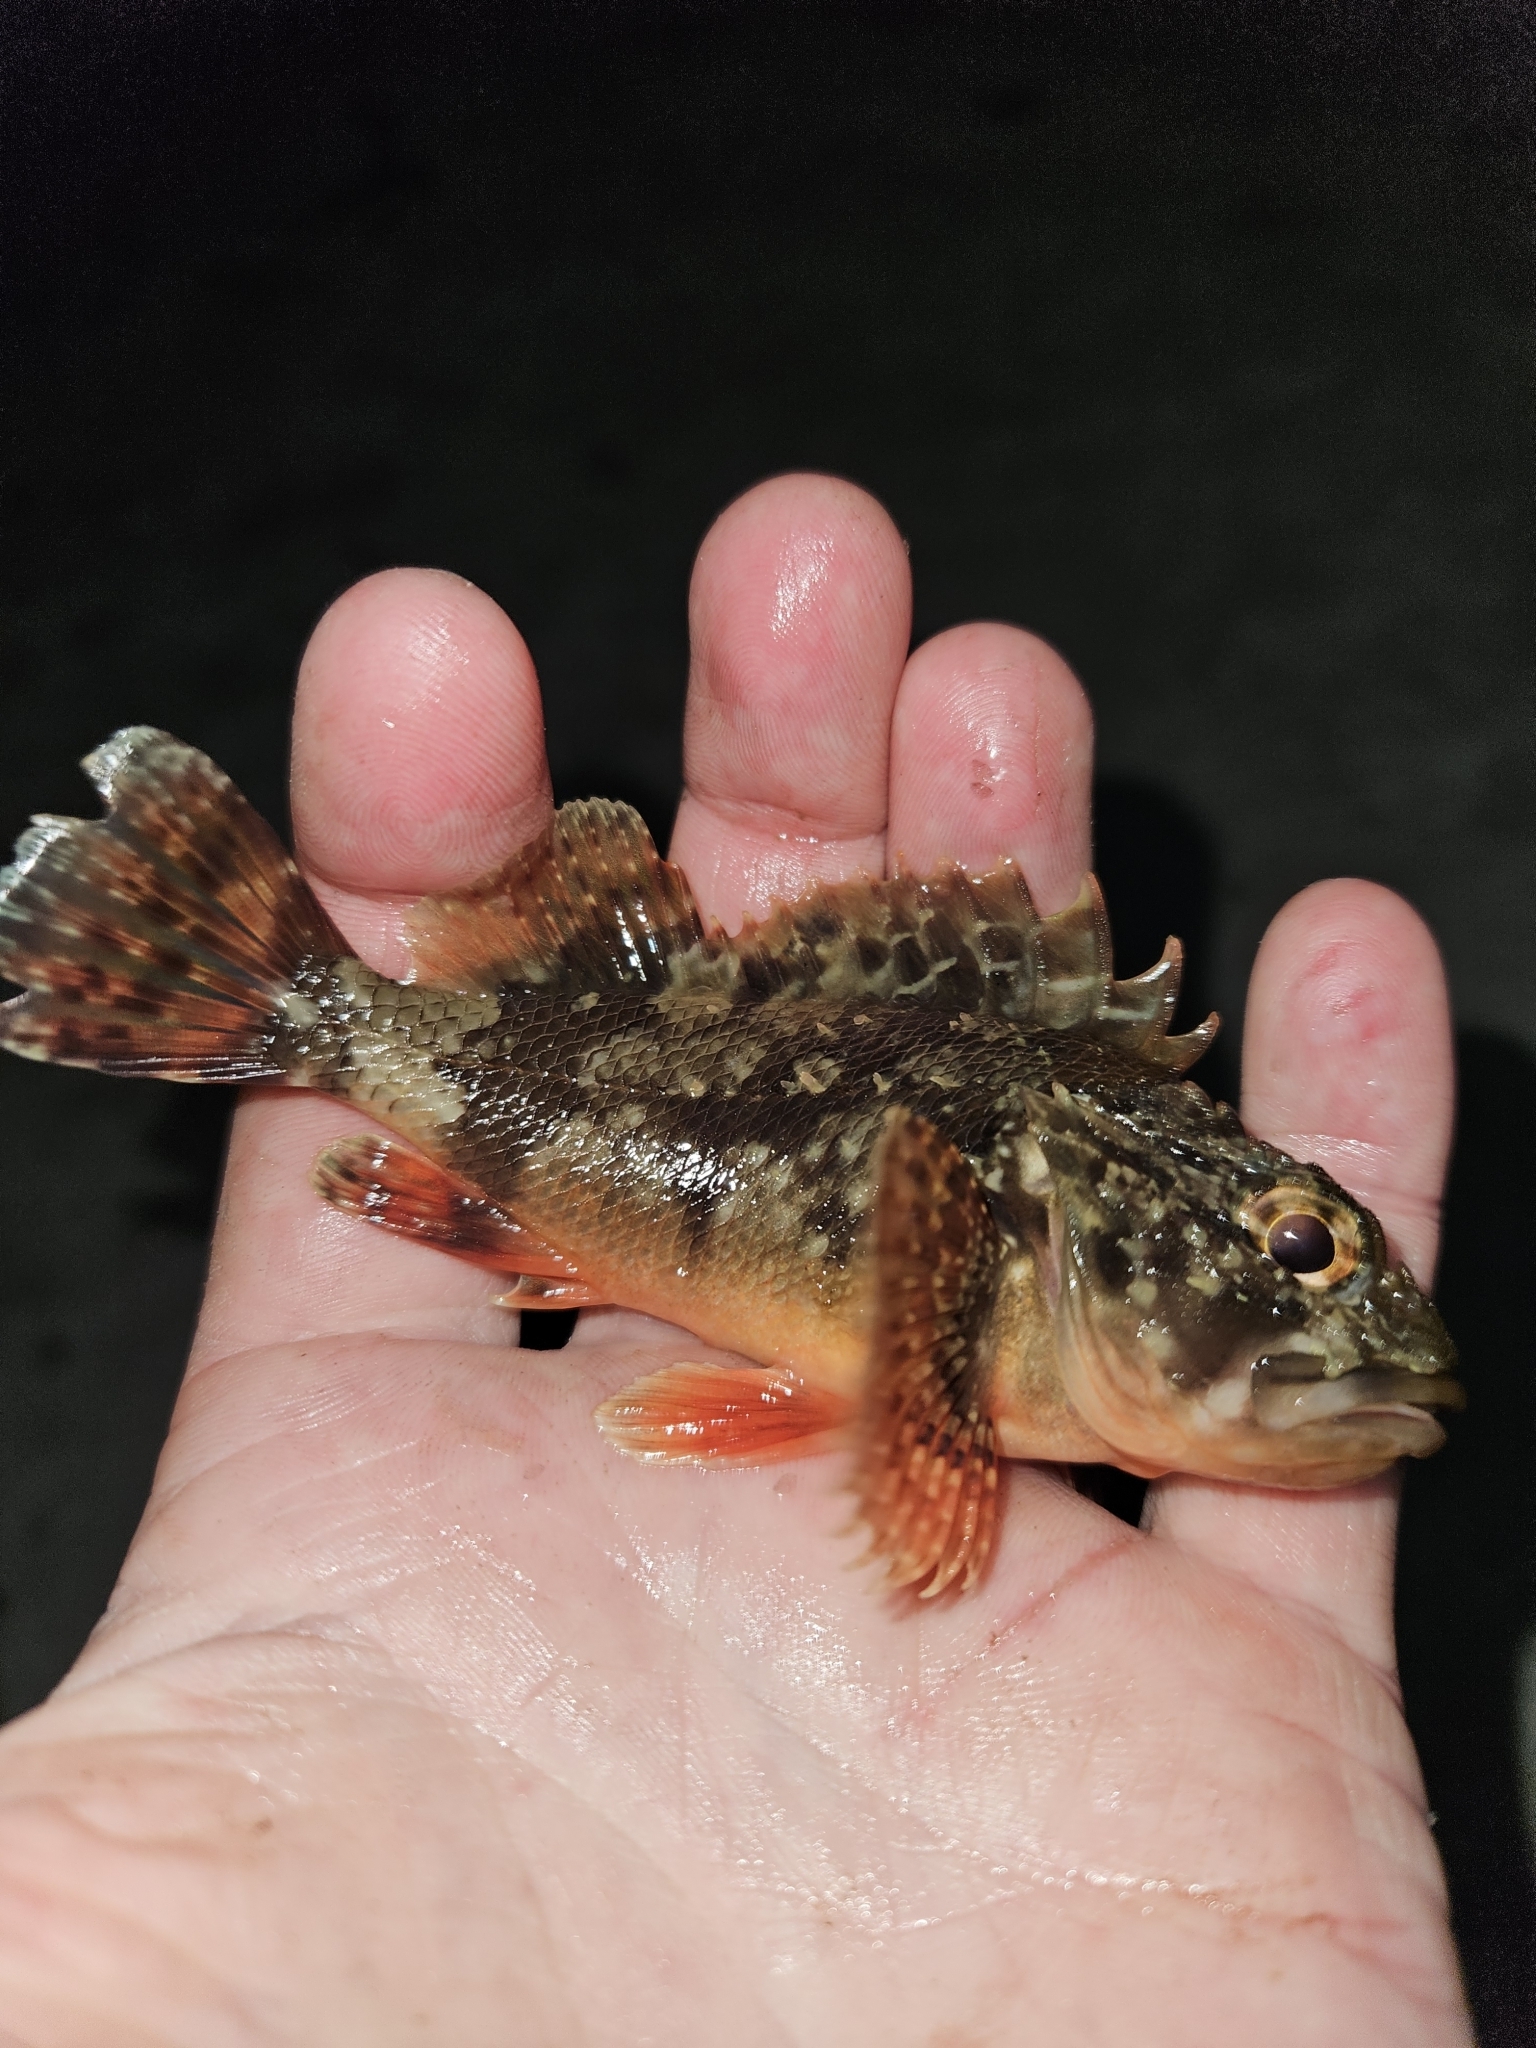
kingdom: Animalia
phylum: Chordata
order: Scorpaeniformes
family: Scorpaenidae
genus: Scorpaena
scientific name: Scorpaena papillosa
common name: Chained scorpionfish
